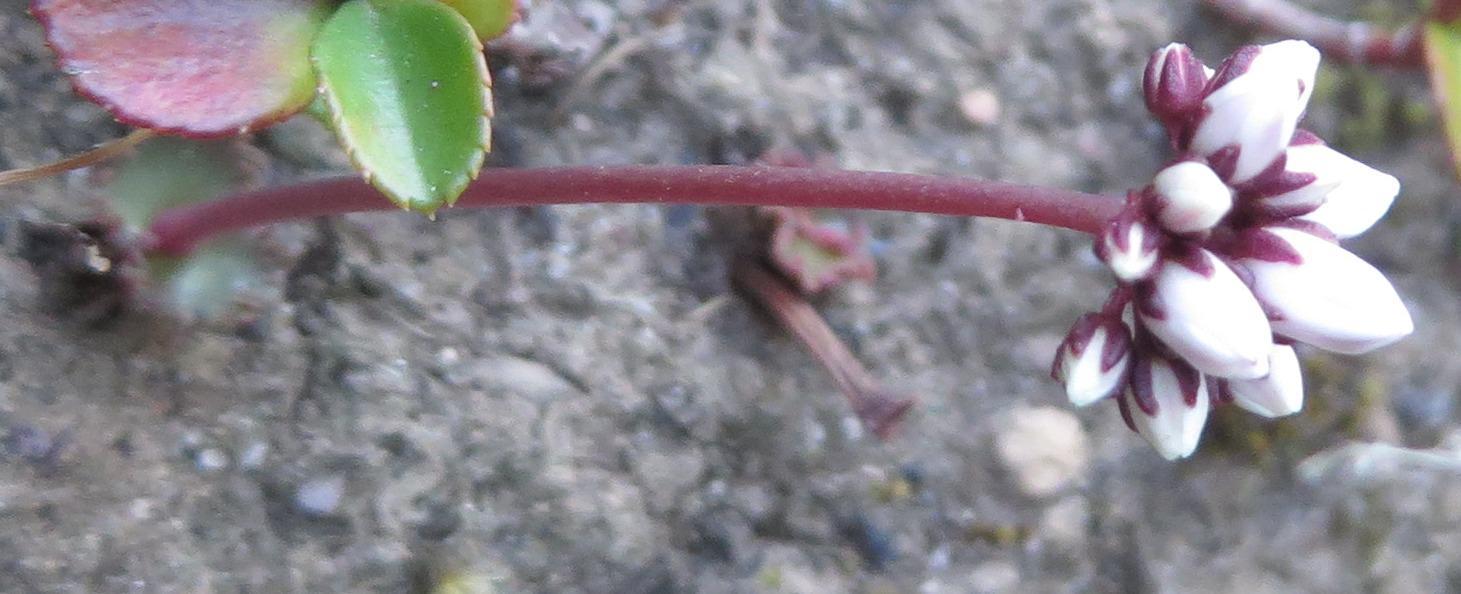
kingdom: Plantae
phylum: Tracheophyta
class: Magnoliopsida
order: Saxifragales
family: Crassulaceae
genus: Crassula
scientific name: Crassula saxifraga
